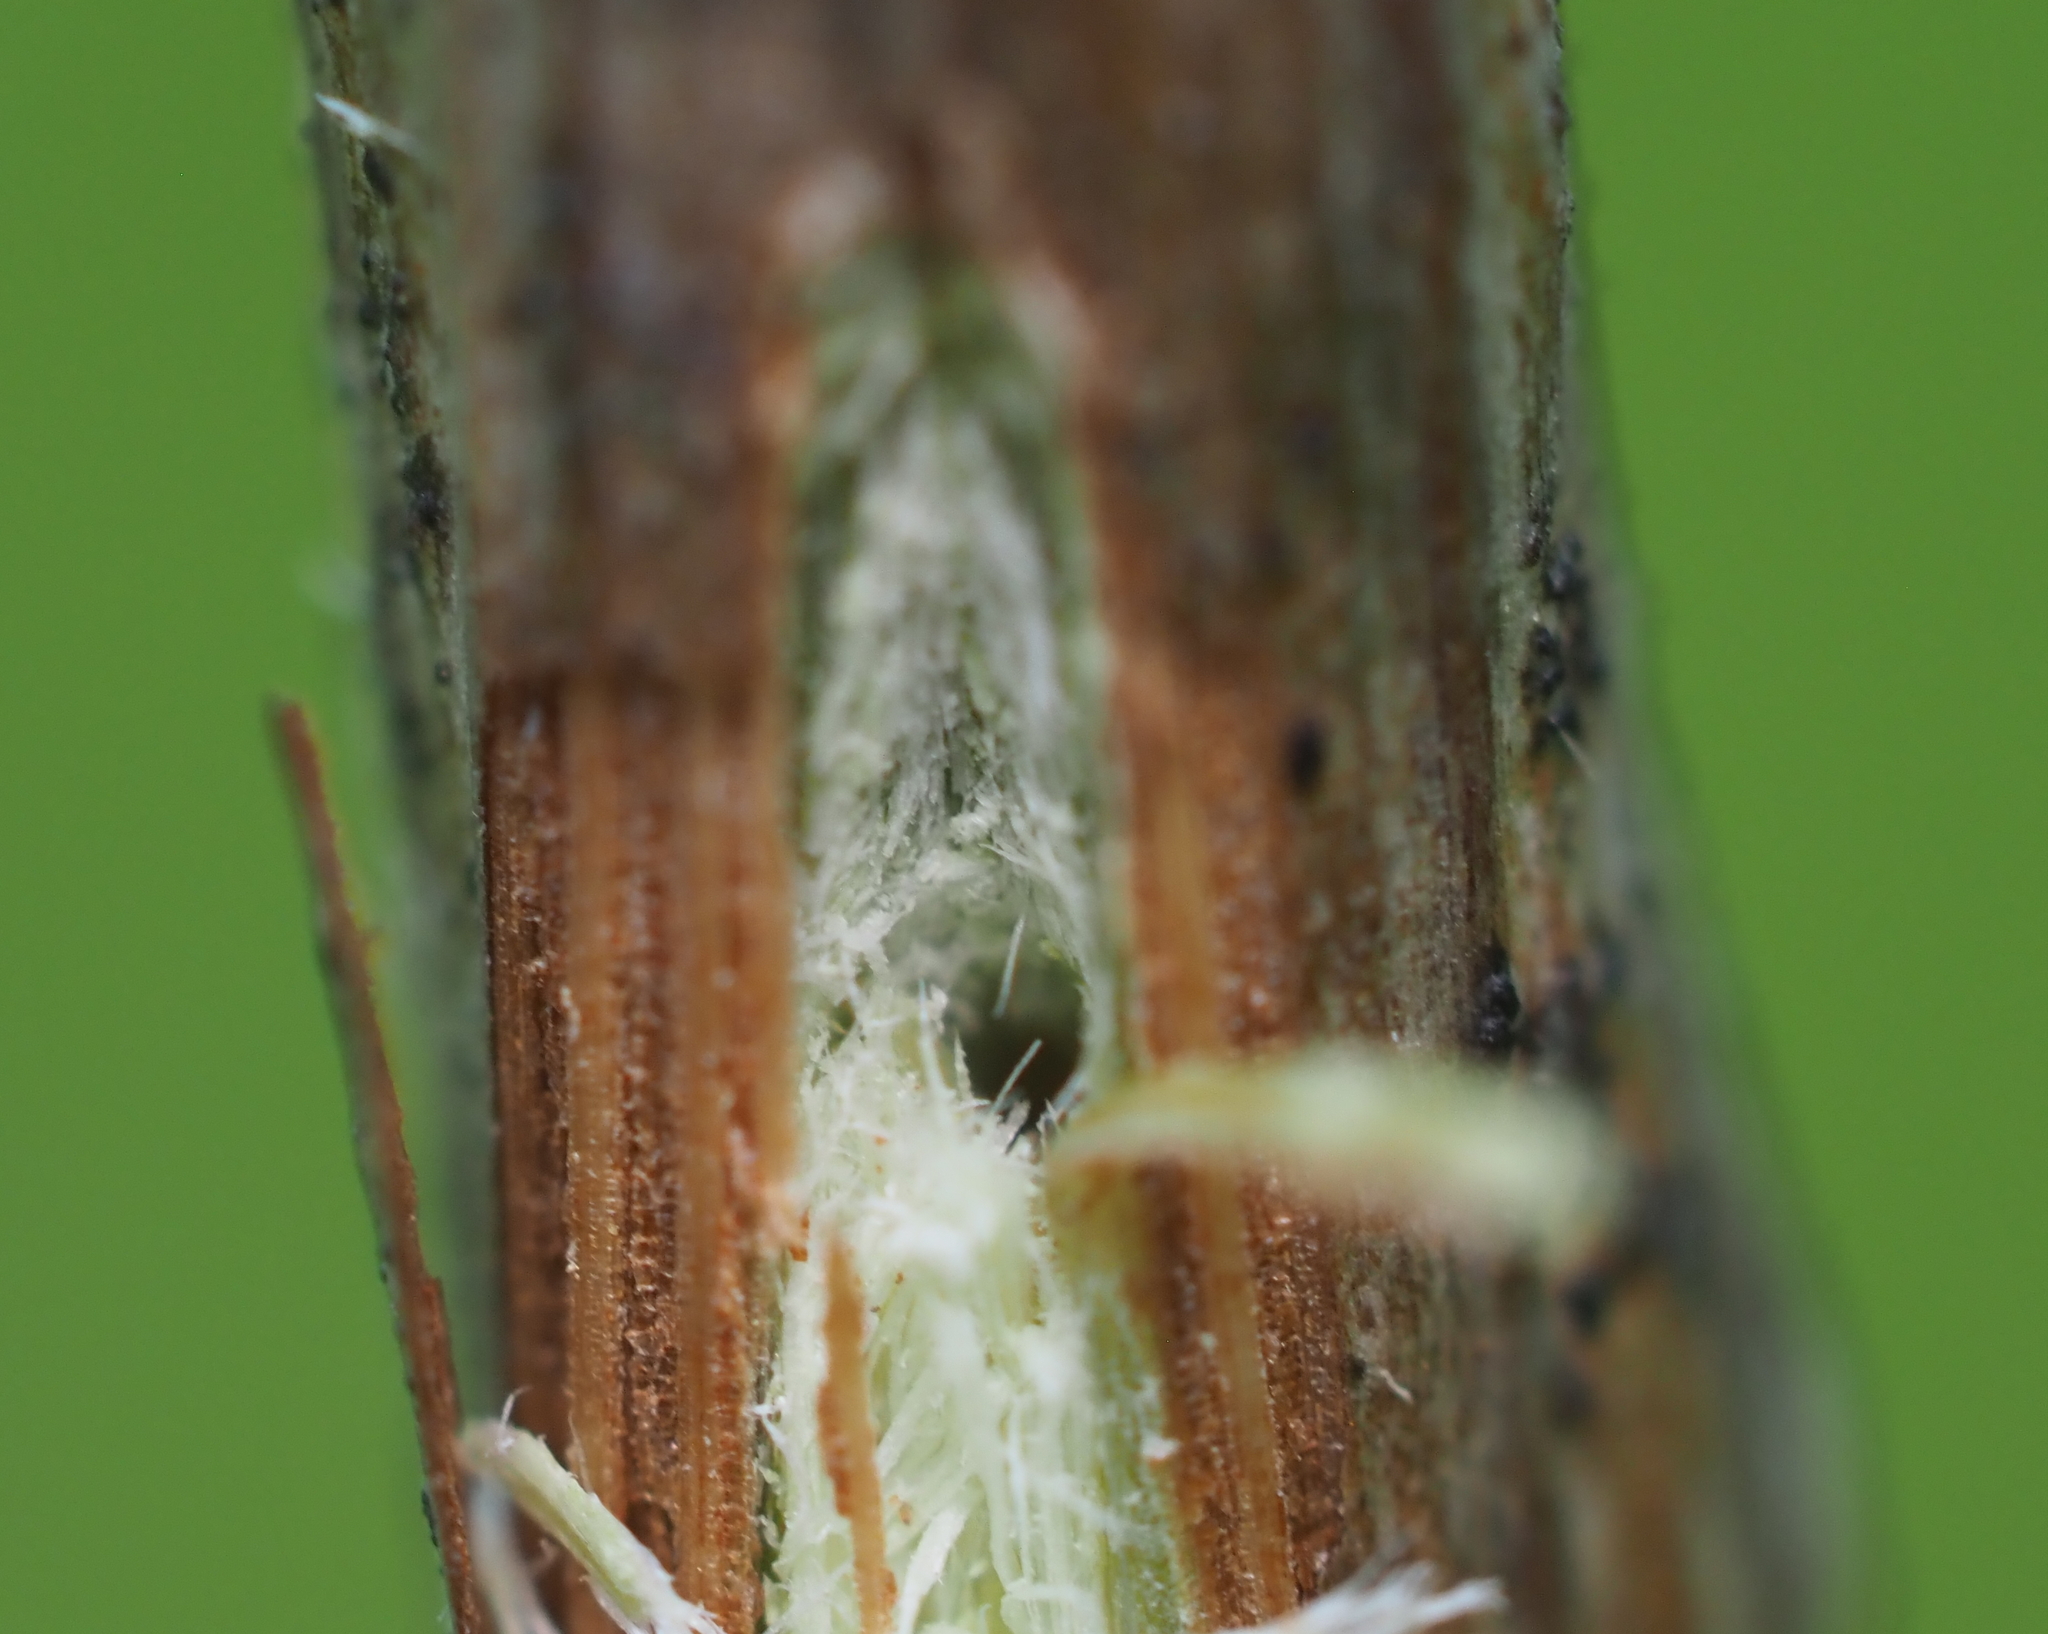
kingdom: Animalia
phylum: Arthropoda
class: Insecta
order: Hemiptera
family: Cicadidae
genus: Magicicada
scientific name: Magicicada septendecim
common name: Periodical cicada
